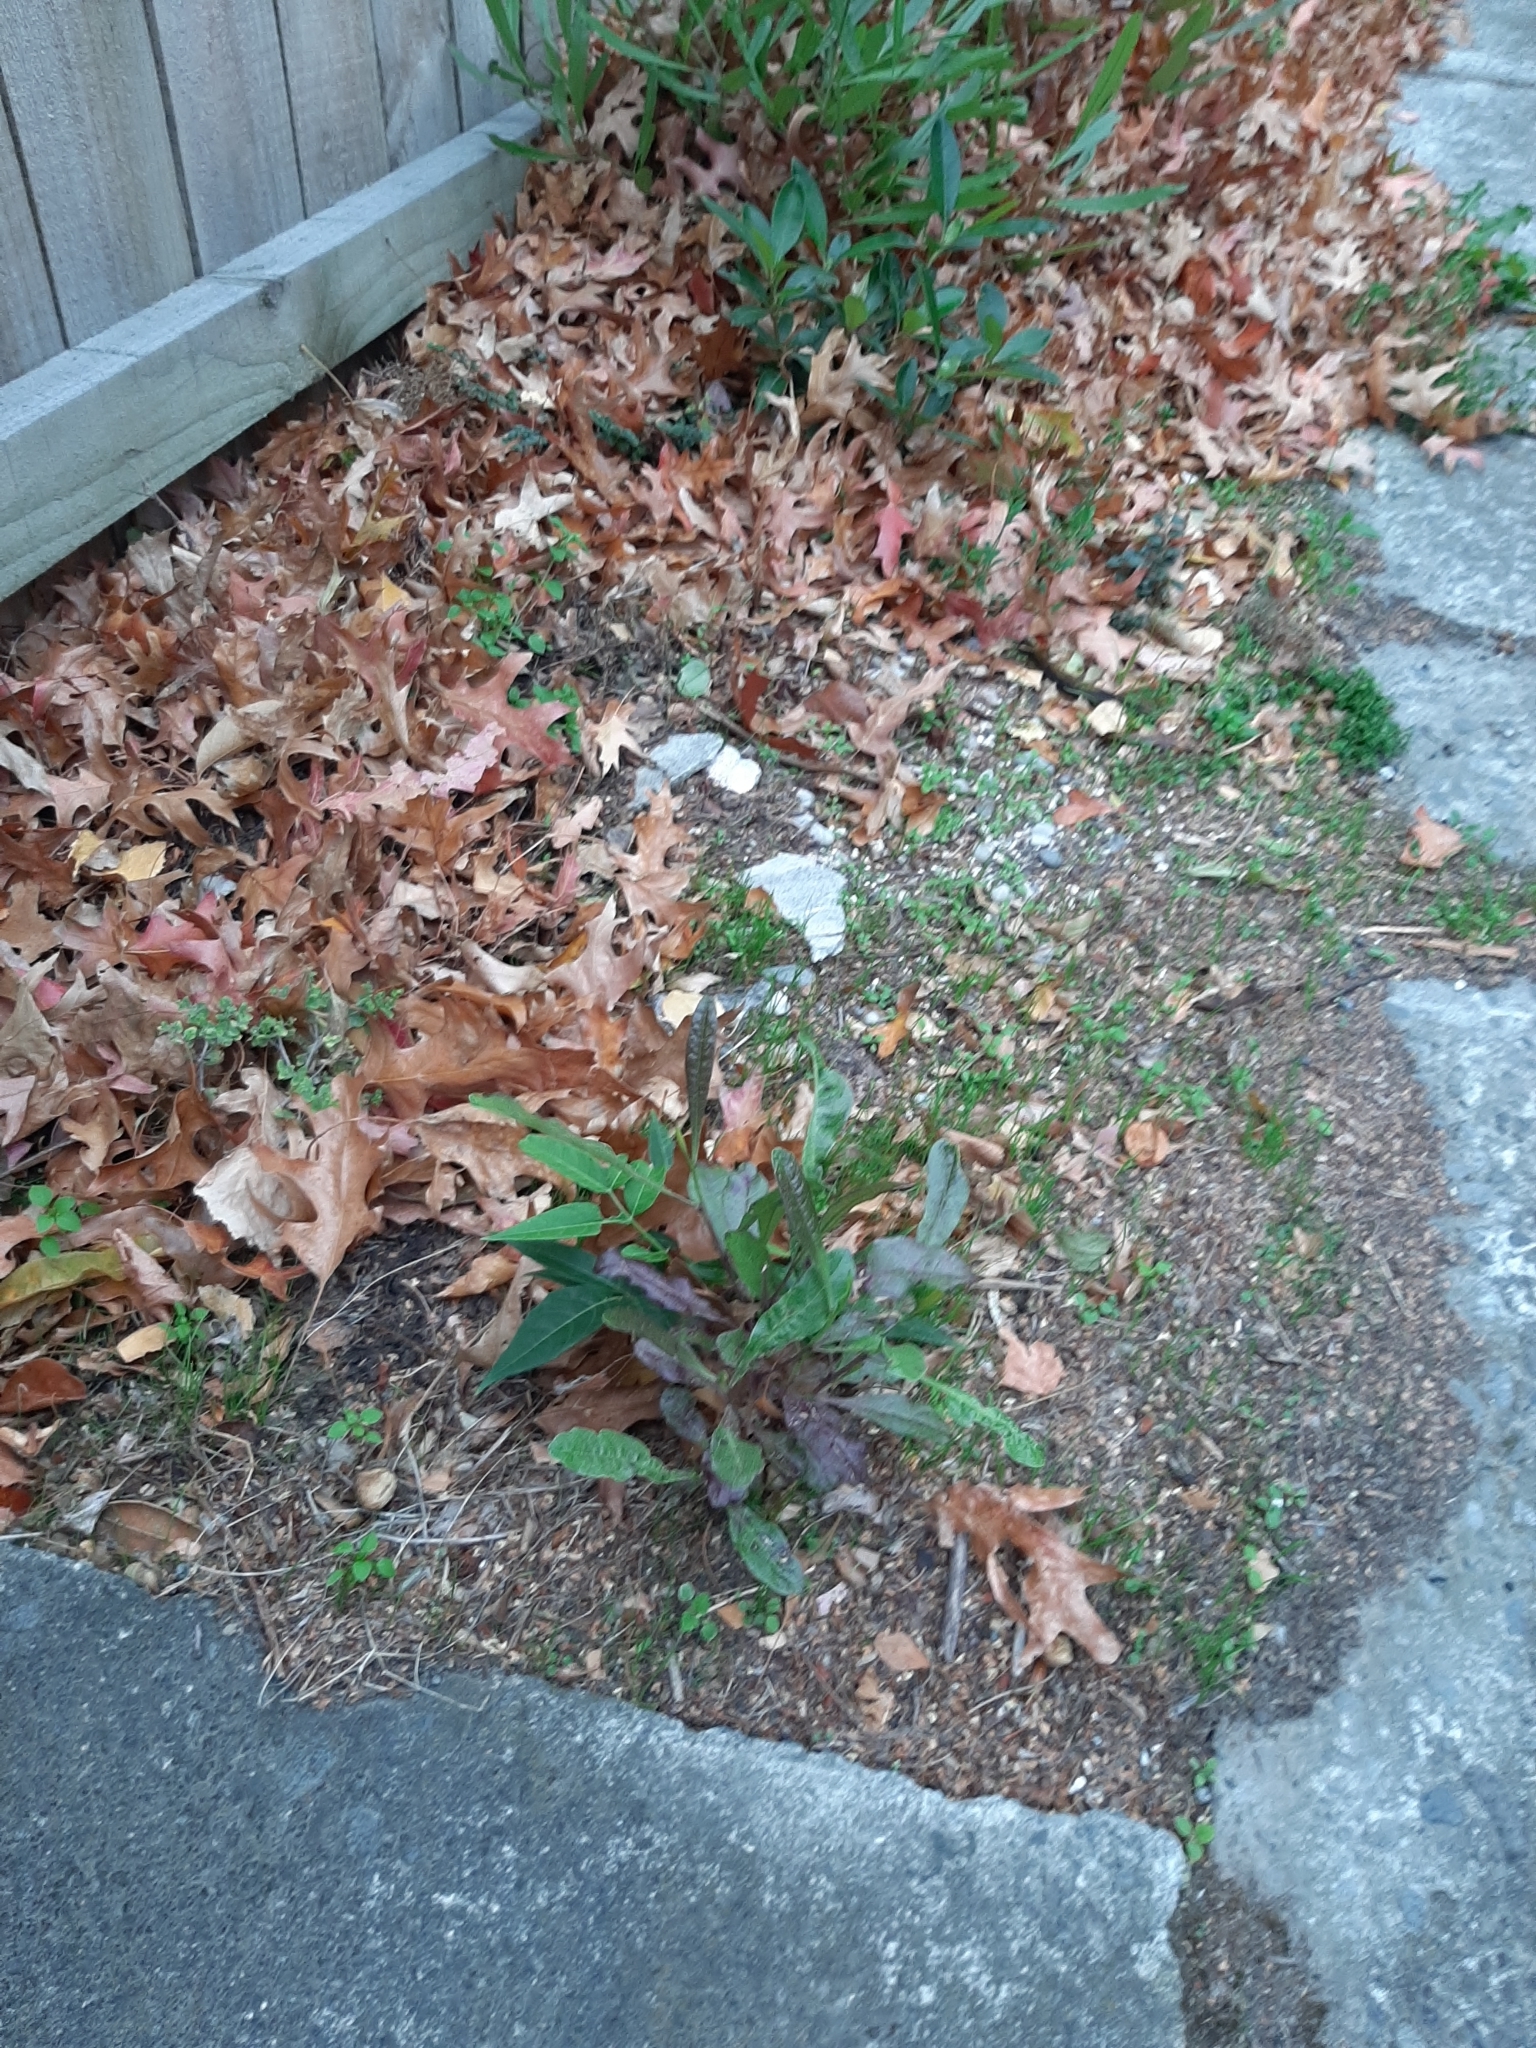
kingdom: Plantae
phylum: Tracheophyta
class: Magnoliopsida
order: Sapindales
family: Sapindaceae
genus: Dodonaea
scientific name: Dodonaea viscosa
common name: Hopbush
